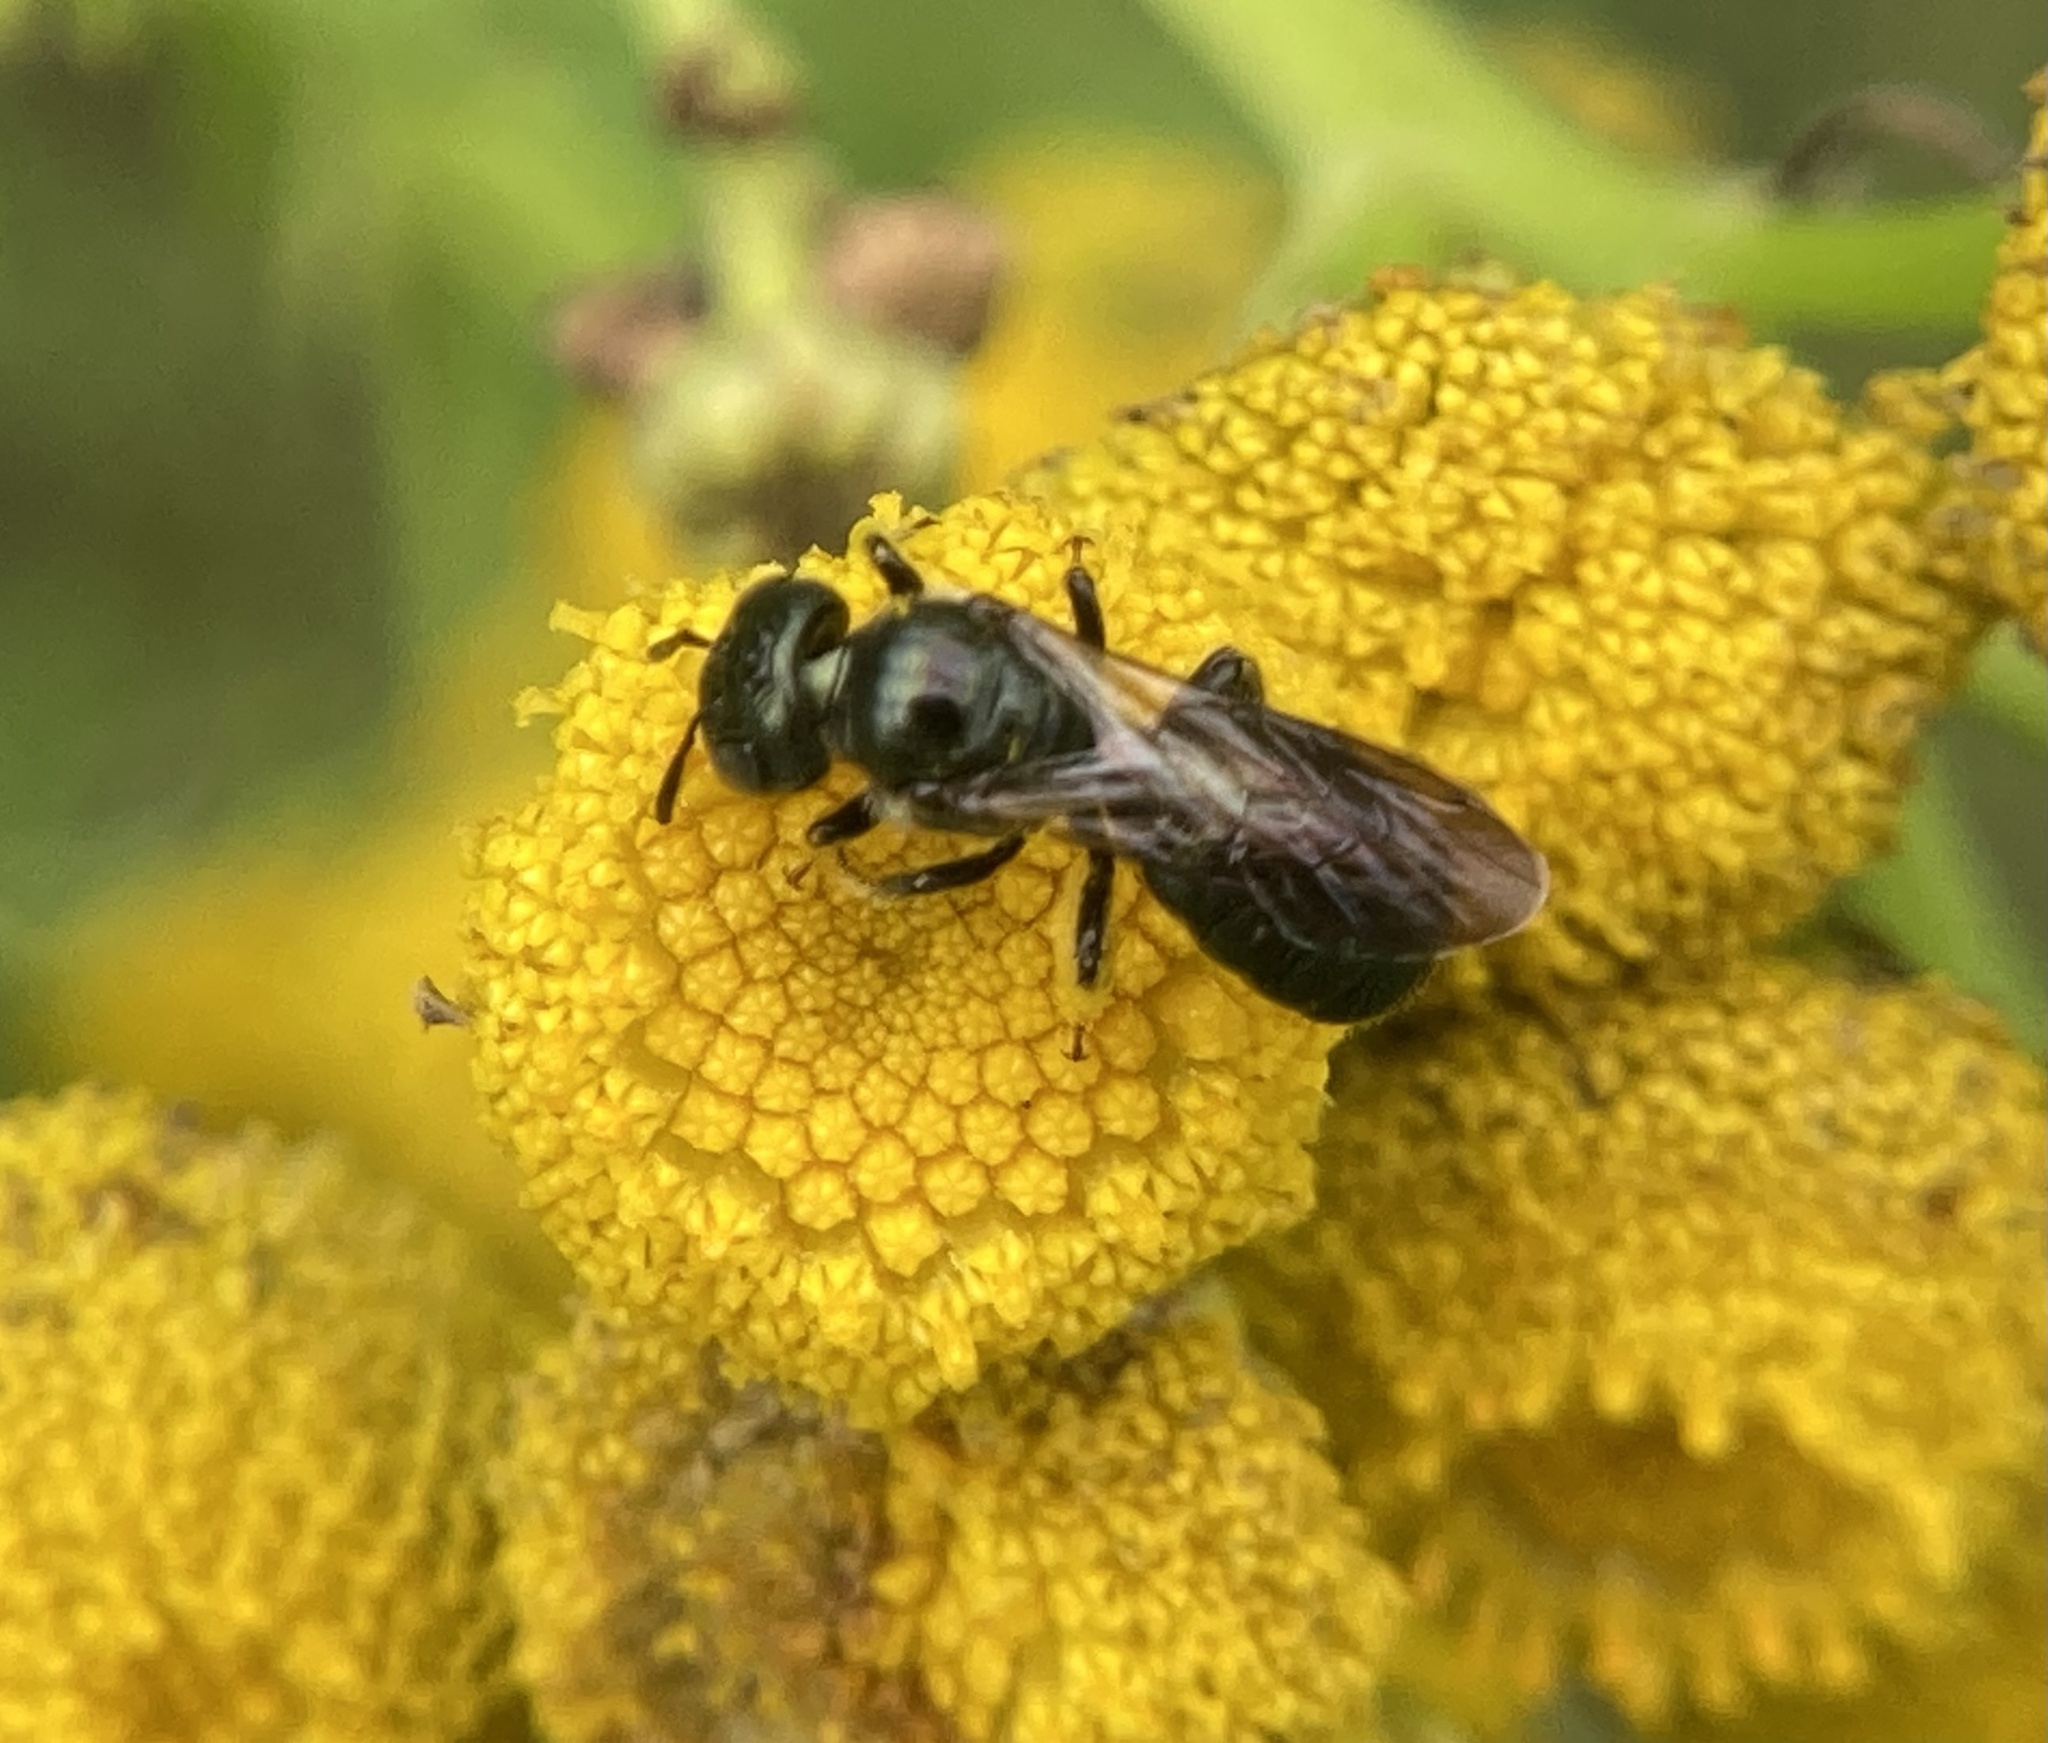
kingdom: Animalia
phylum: Arthropoda
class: Insecta
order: Hymenoptera
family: Apidae
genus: Zadontomerus
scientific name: Zadontomerus
